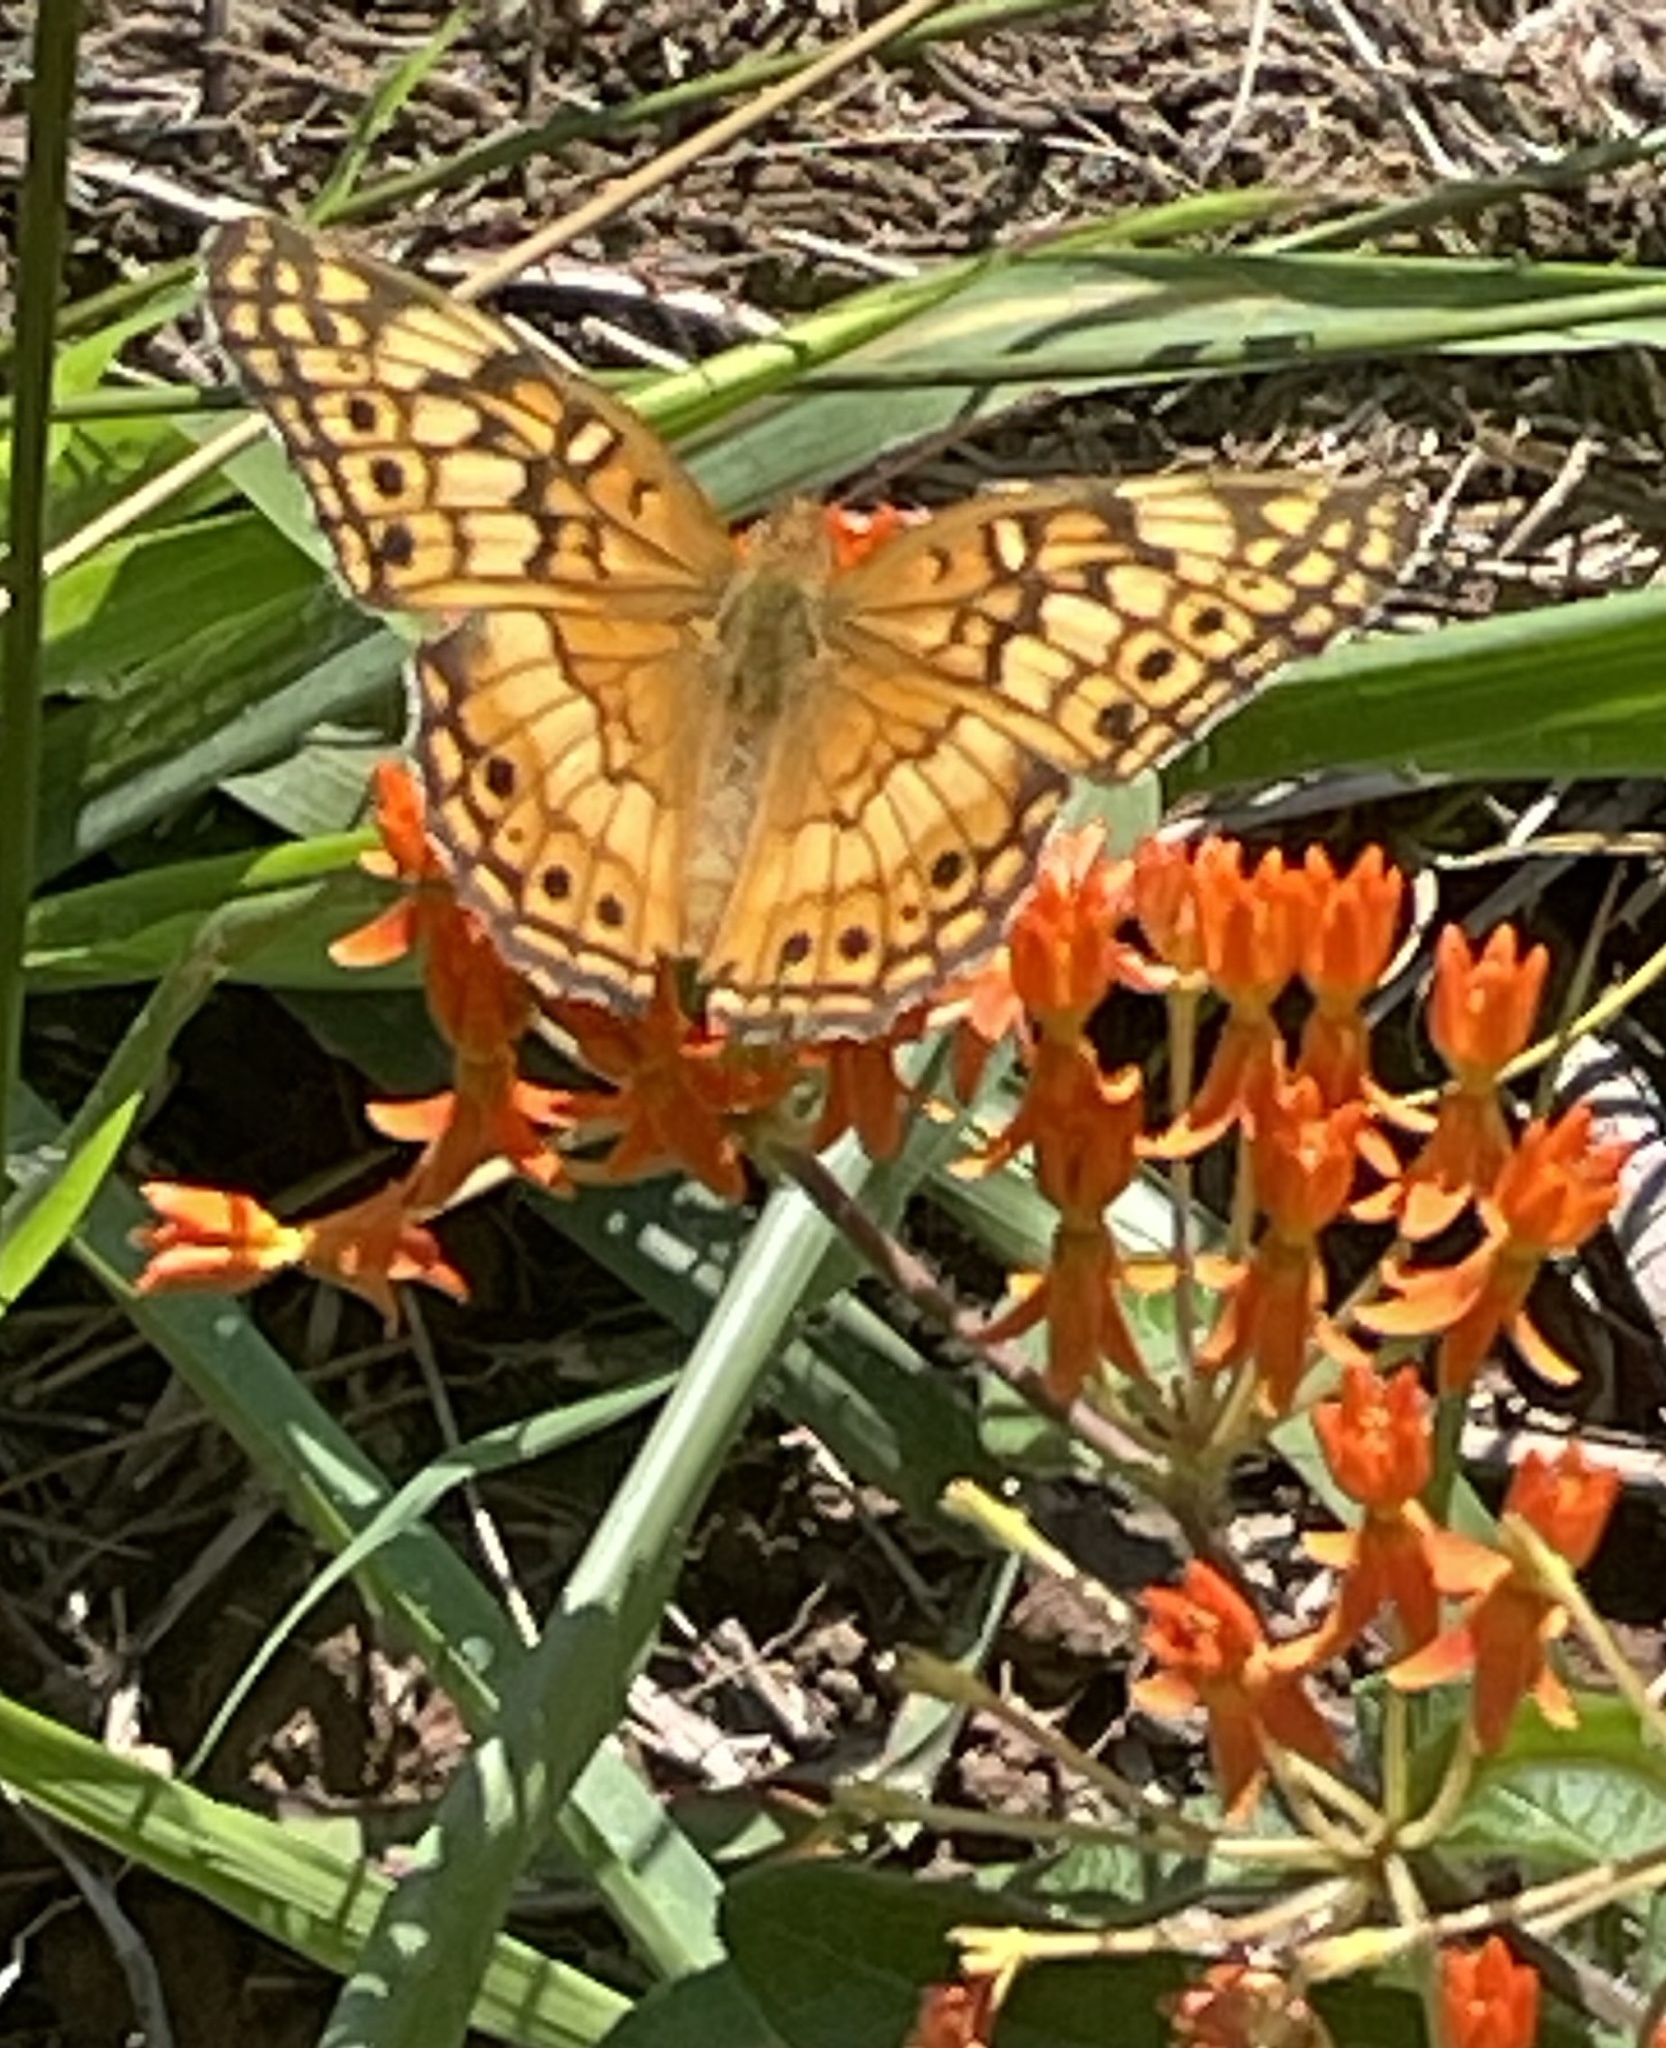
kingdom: Animalia
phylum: Arthropoda
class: Insecta
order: Lepidoptera
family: Nymphalidae
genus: Euptoieta
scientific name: Euptoieta claudia
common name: Variegated fritillary
